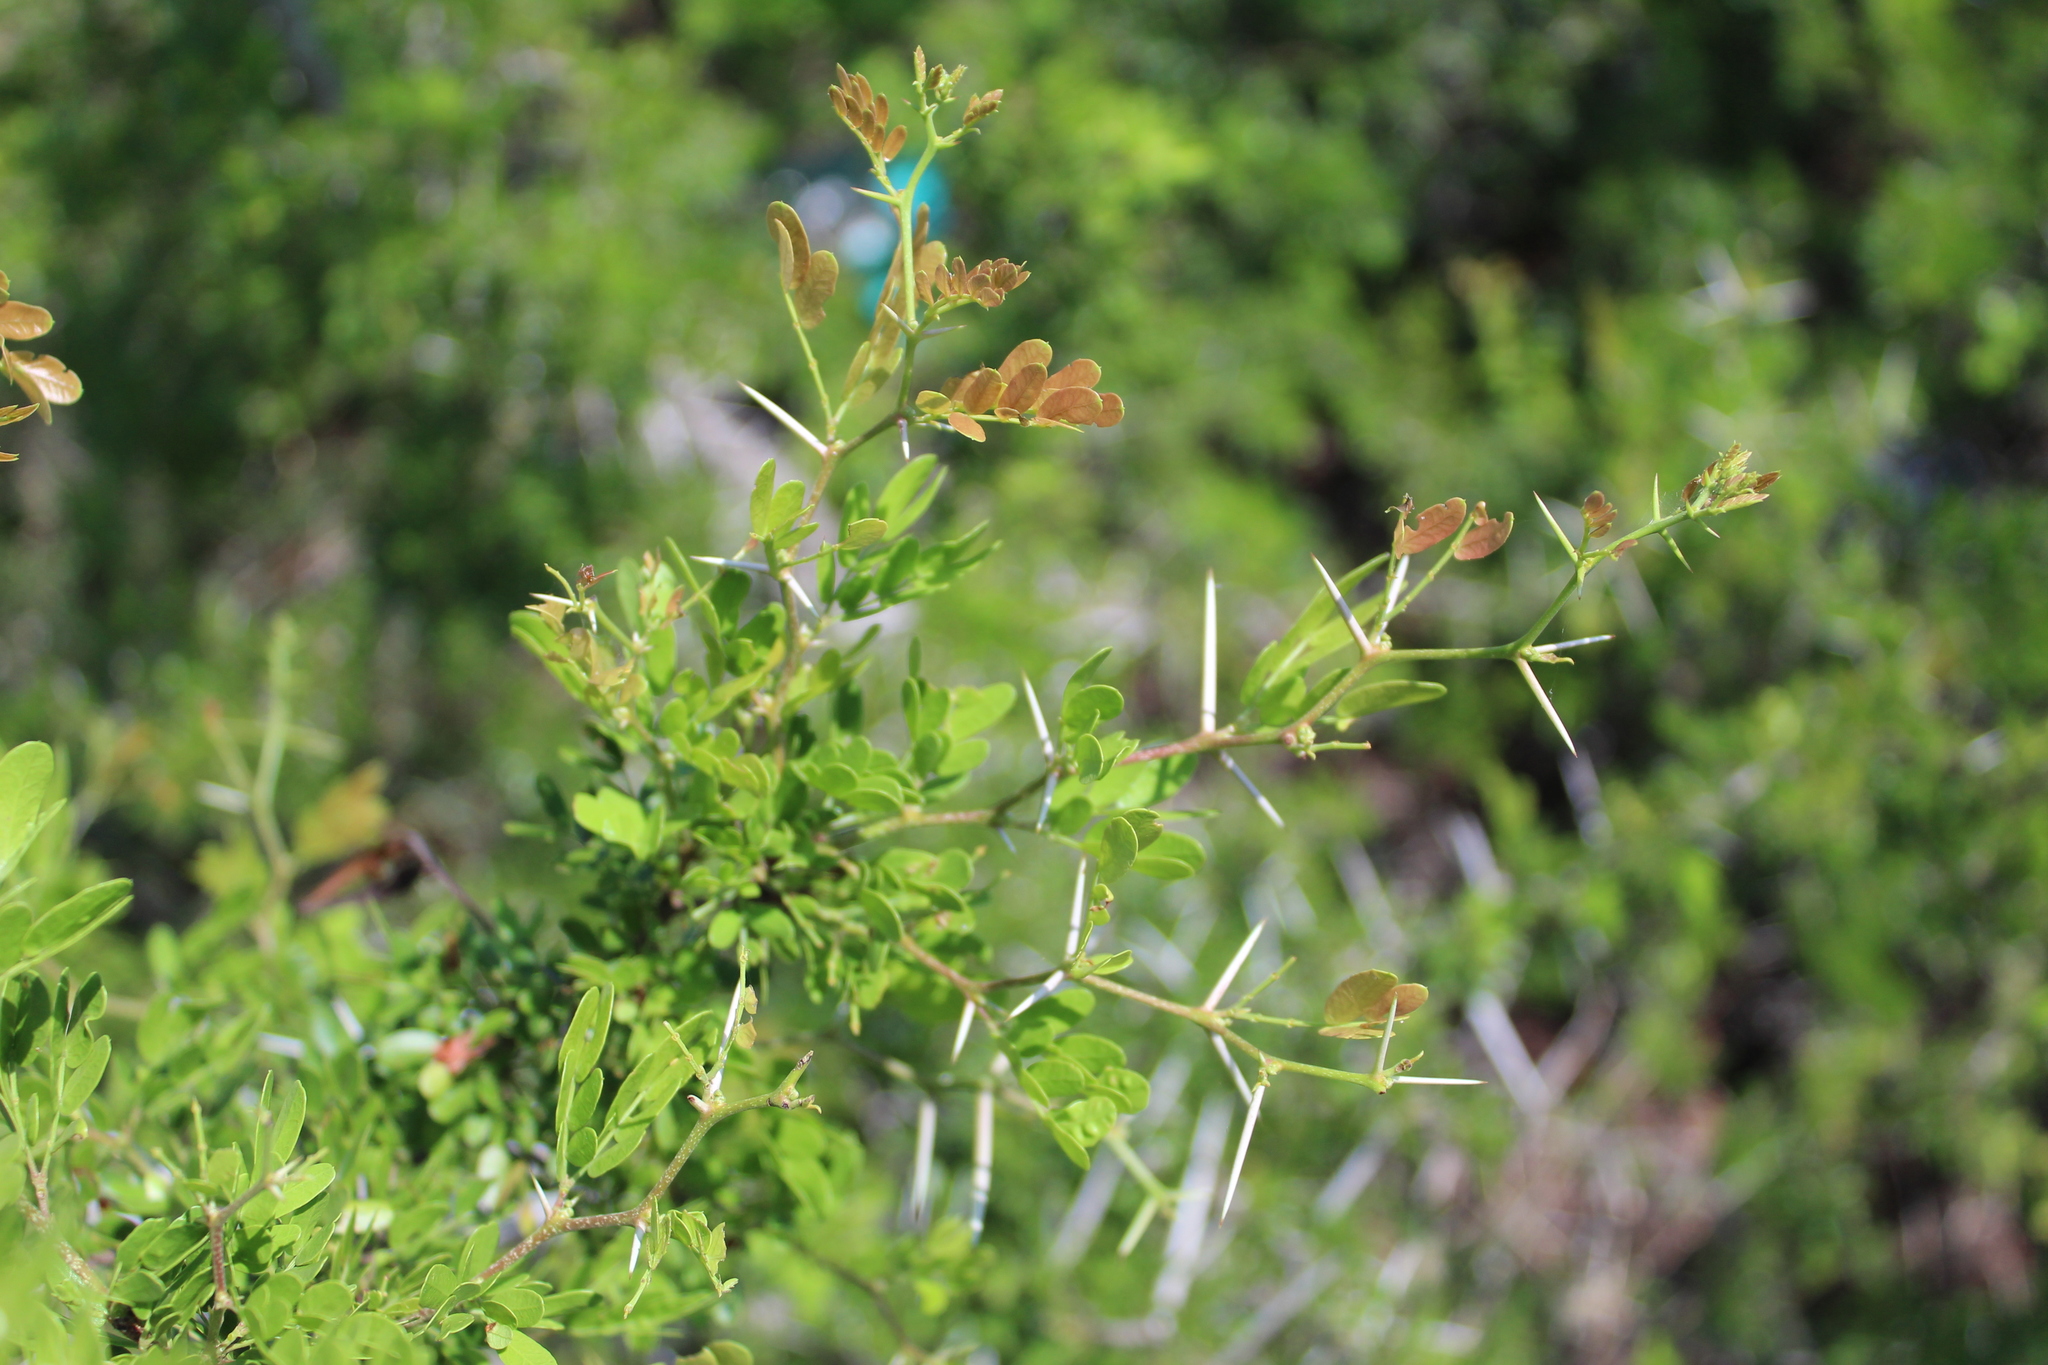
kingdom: Plantae
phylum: Tracheophyta
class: Magnoliopsida
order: Fabales
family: Fabaceae
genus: Vachellia
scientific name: Vachellia rigidula
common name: Blackbrush
